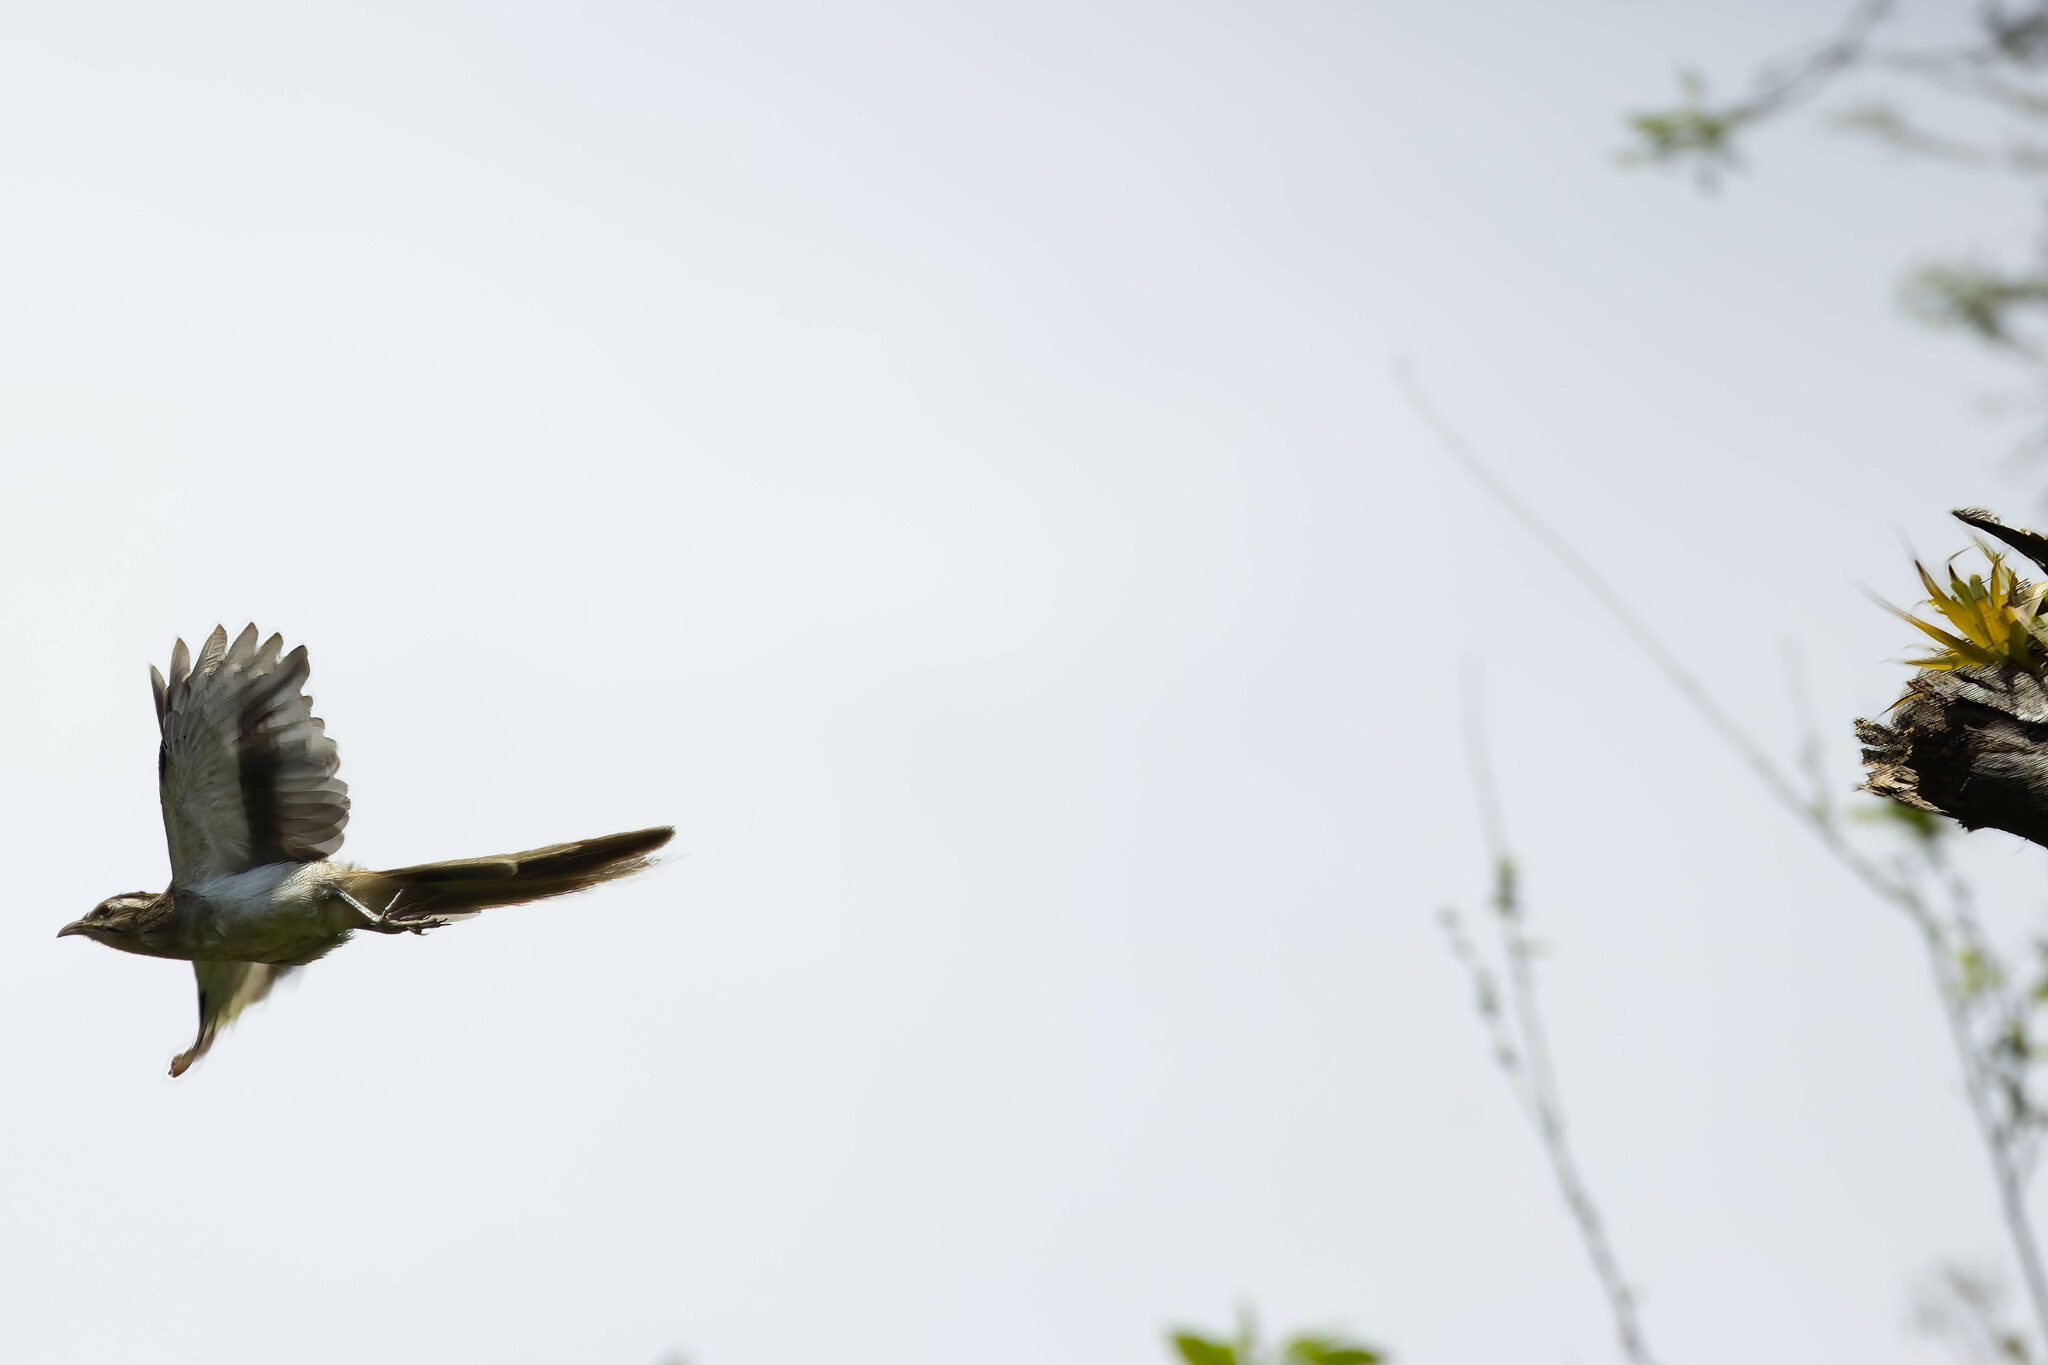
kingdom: Animalia
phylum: Chordata
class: Aves
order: Cuculiformes
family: Cuculidae
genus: Tapera
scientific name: Tapera naevia
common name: Striped cuckoo
